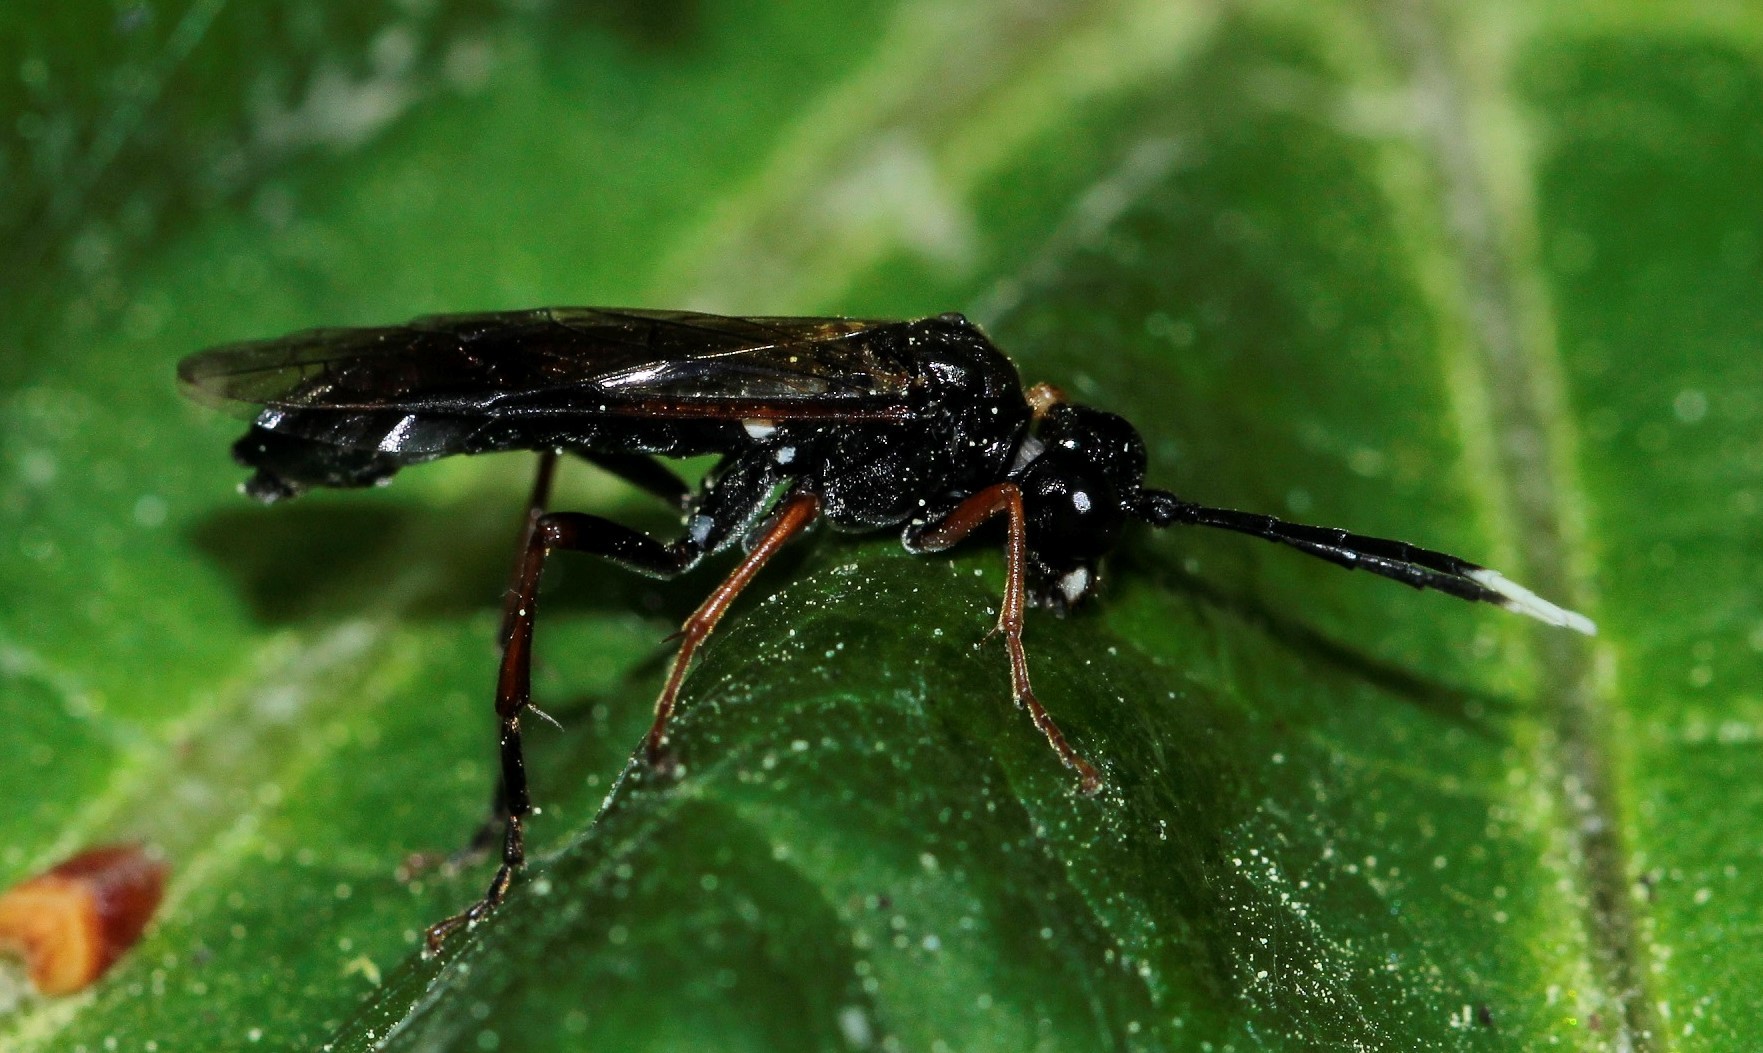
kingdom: Animalia
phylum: Arthropoda
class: Insecta
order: Hymenoptera
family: Tenthredinidae
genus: Tenthredo
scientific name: Tenthredo bipunctula
